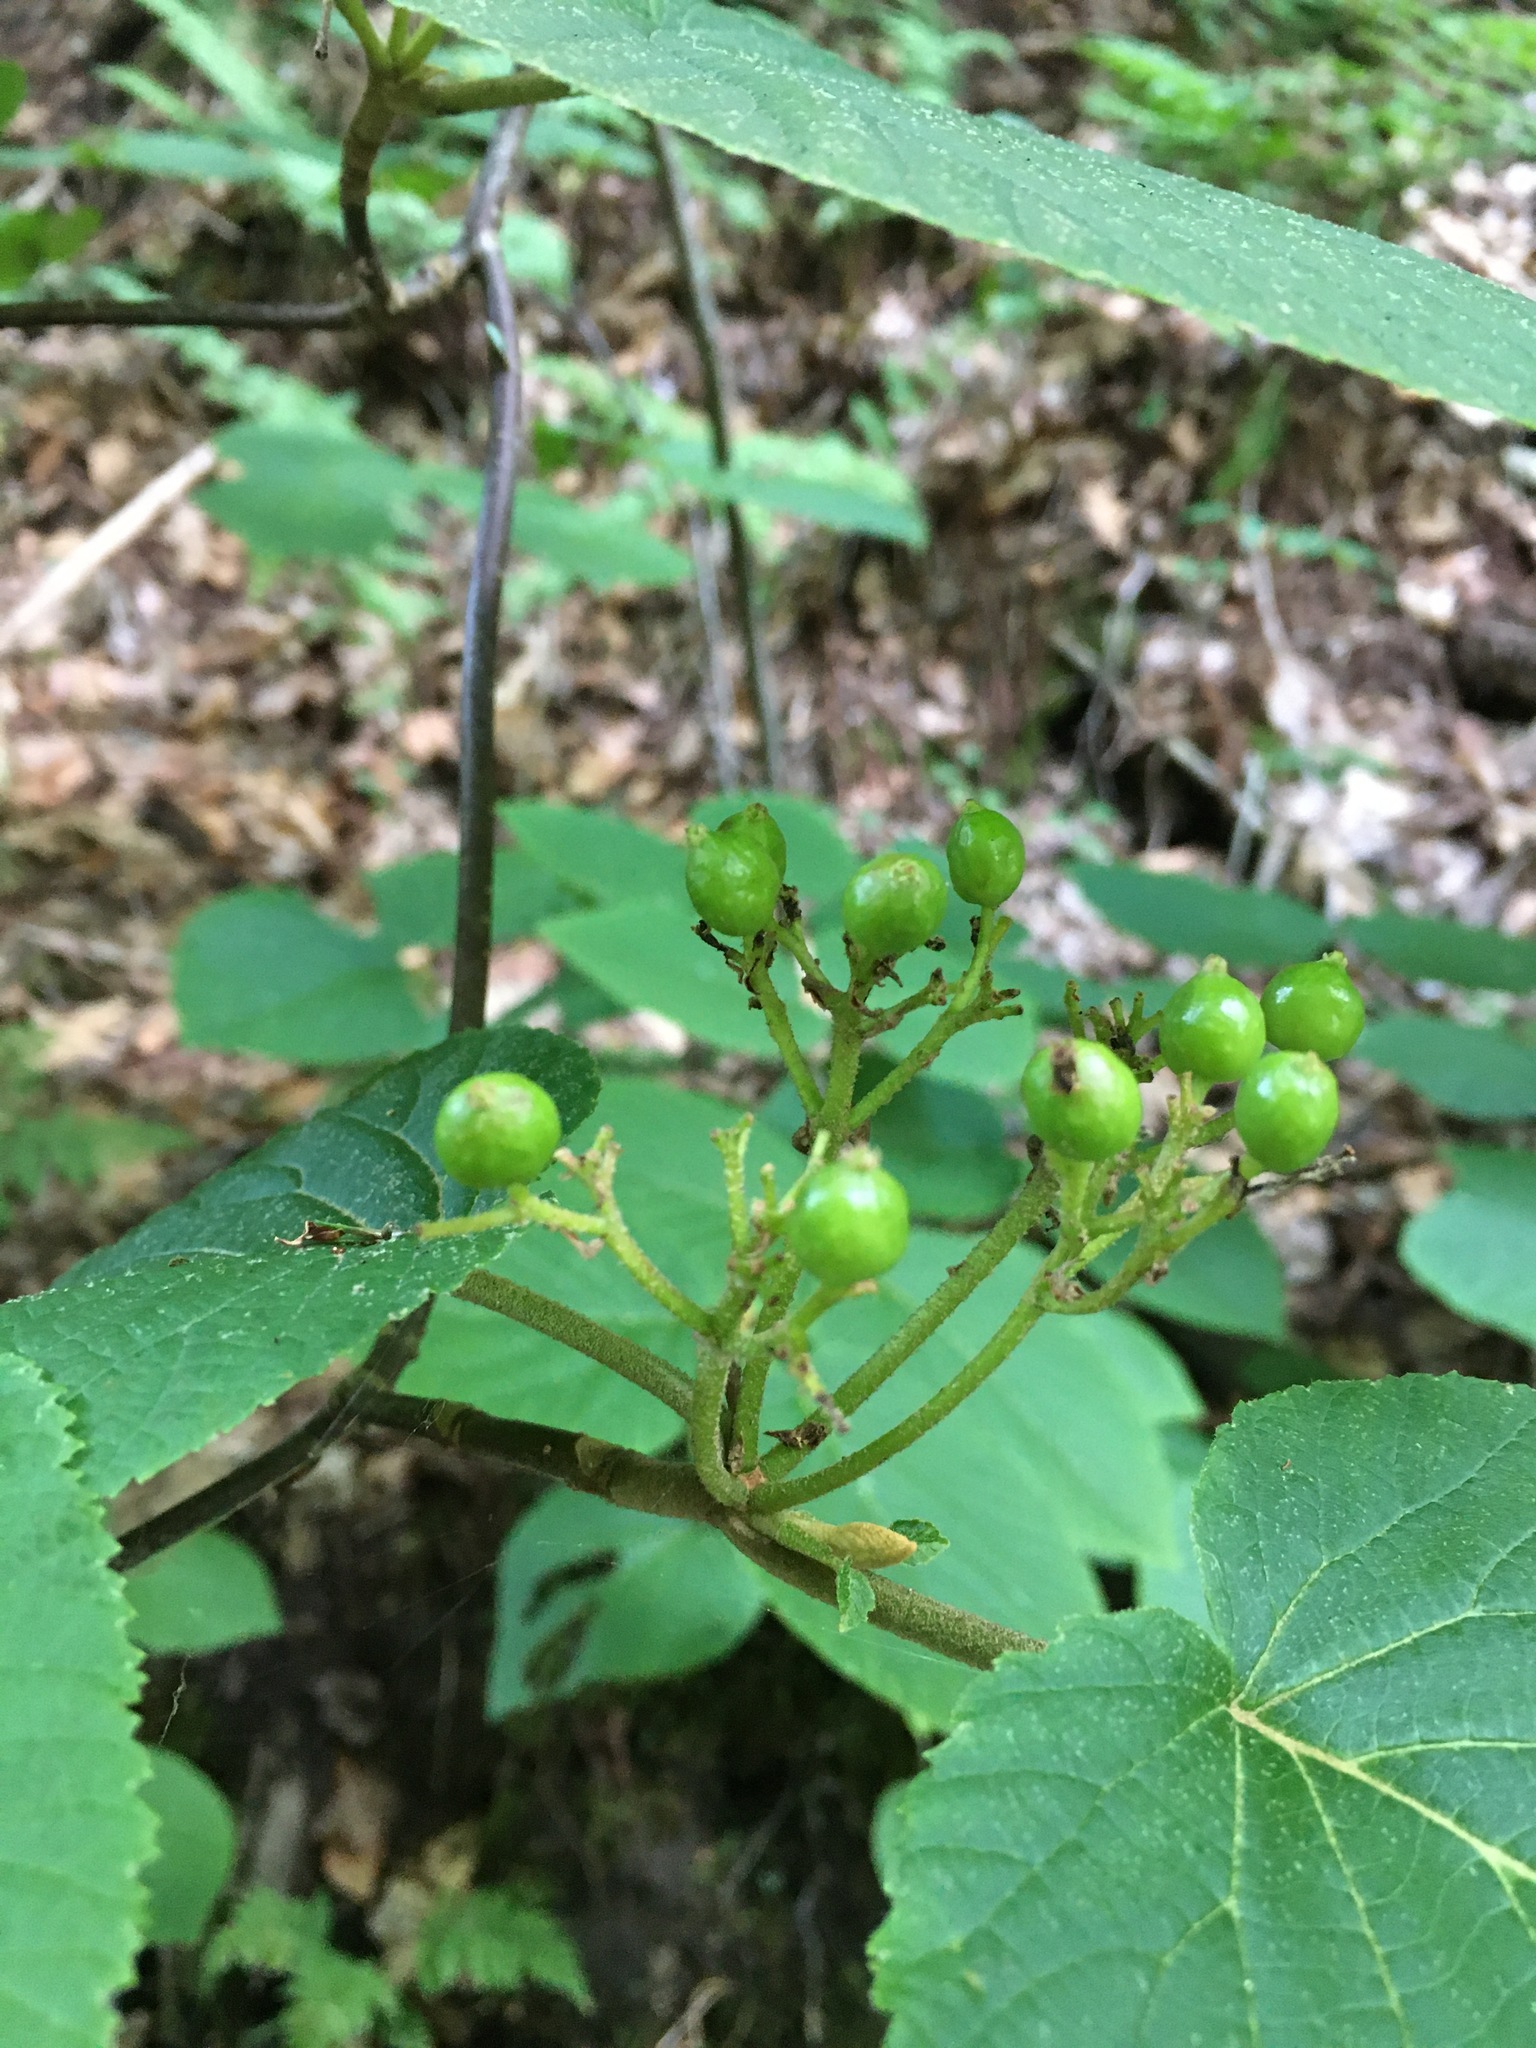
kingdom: Plantae
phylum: Tracheophyta
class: Magnoliopsida
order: Dipsacales
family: Viburnaceae
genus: Viburnum
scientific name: Viburnum lantanoides
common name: Hobblebush
